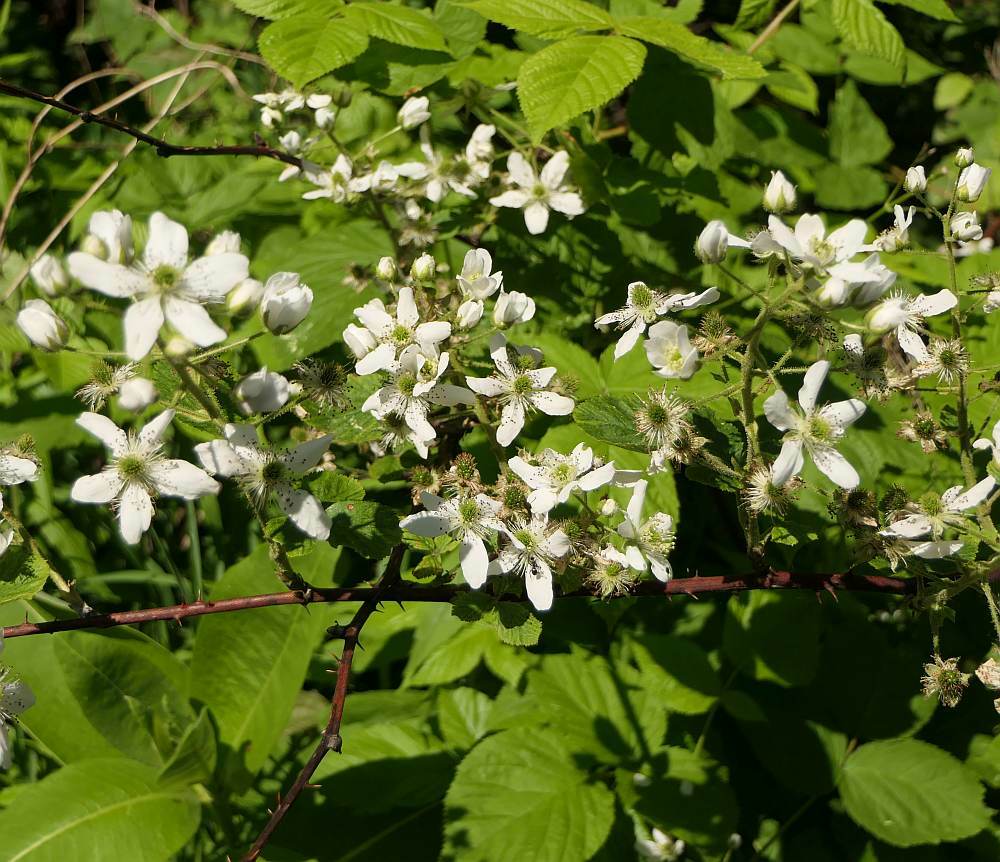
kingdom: Plantae
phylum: Tracheophyta
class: Magnoliopsida
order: Rosales
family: Rosaceae
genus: Rubus
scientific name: Rubus allegheniensis
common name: Allegheny blackberry
